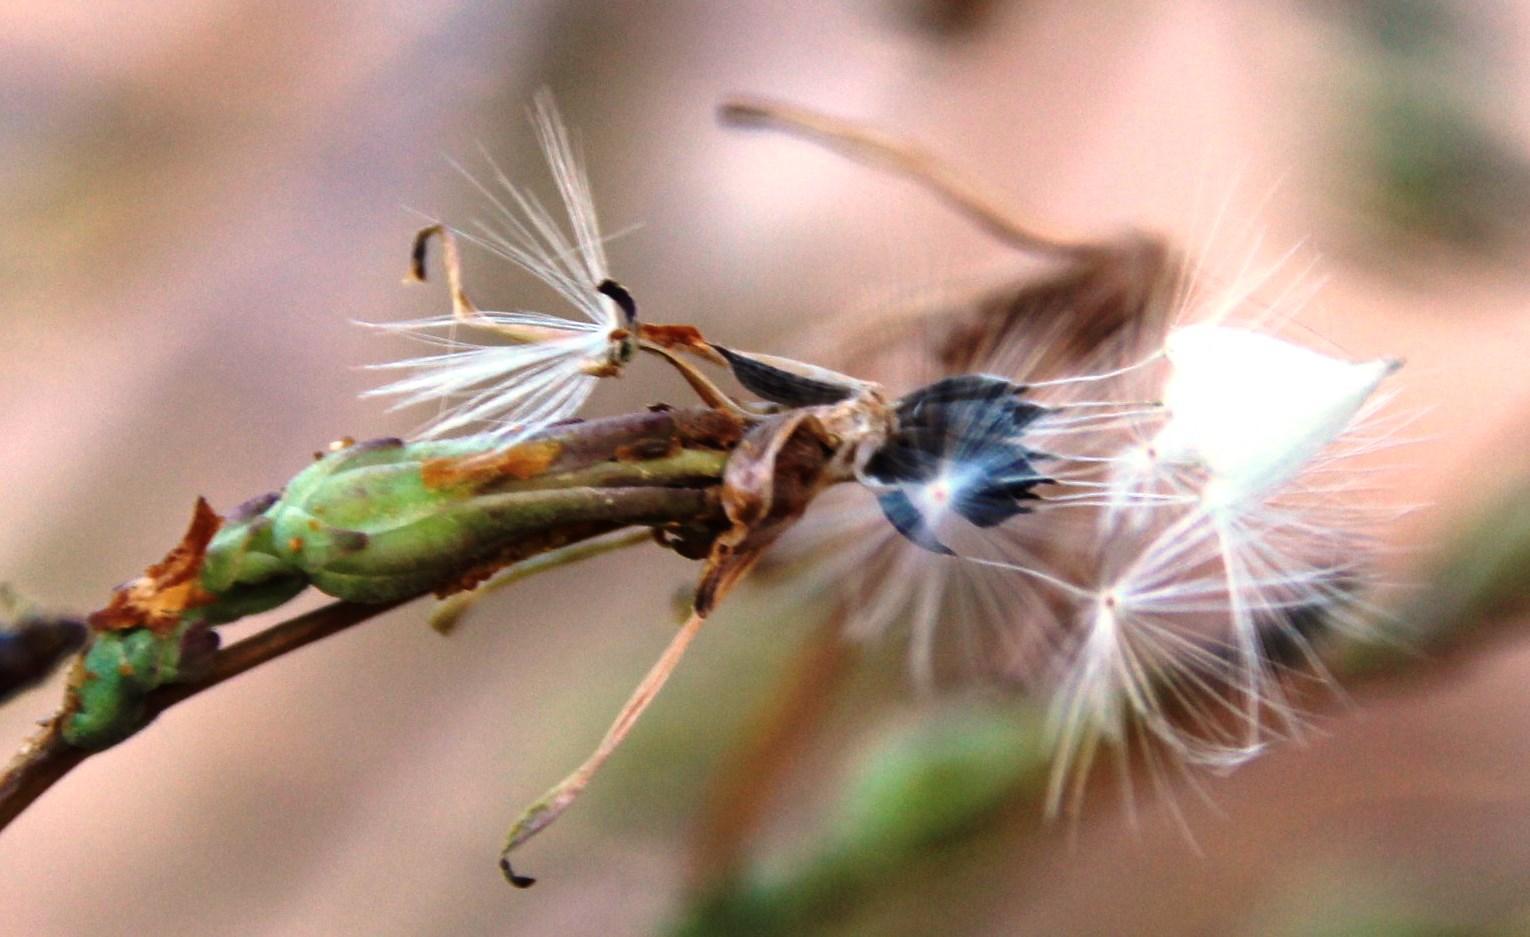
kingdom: Plantae
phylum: Tracheophyta
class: Magnoliopsida
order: Asterales
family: Asteraceae
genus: Lactuca
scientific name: Lactuca serriola
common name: Prickly lettuce
